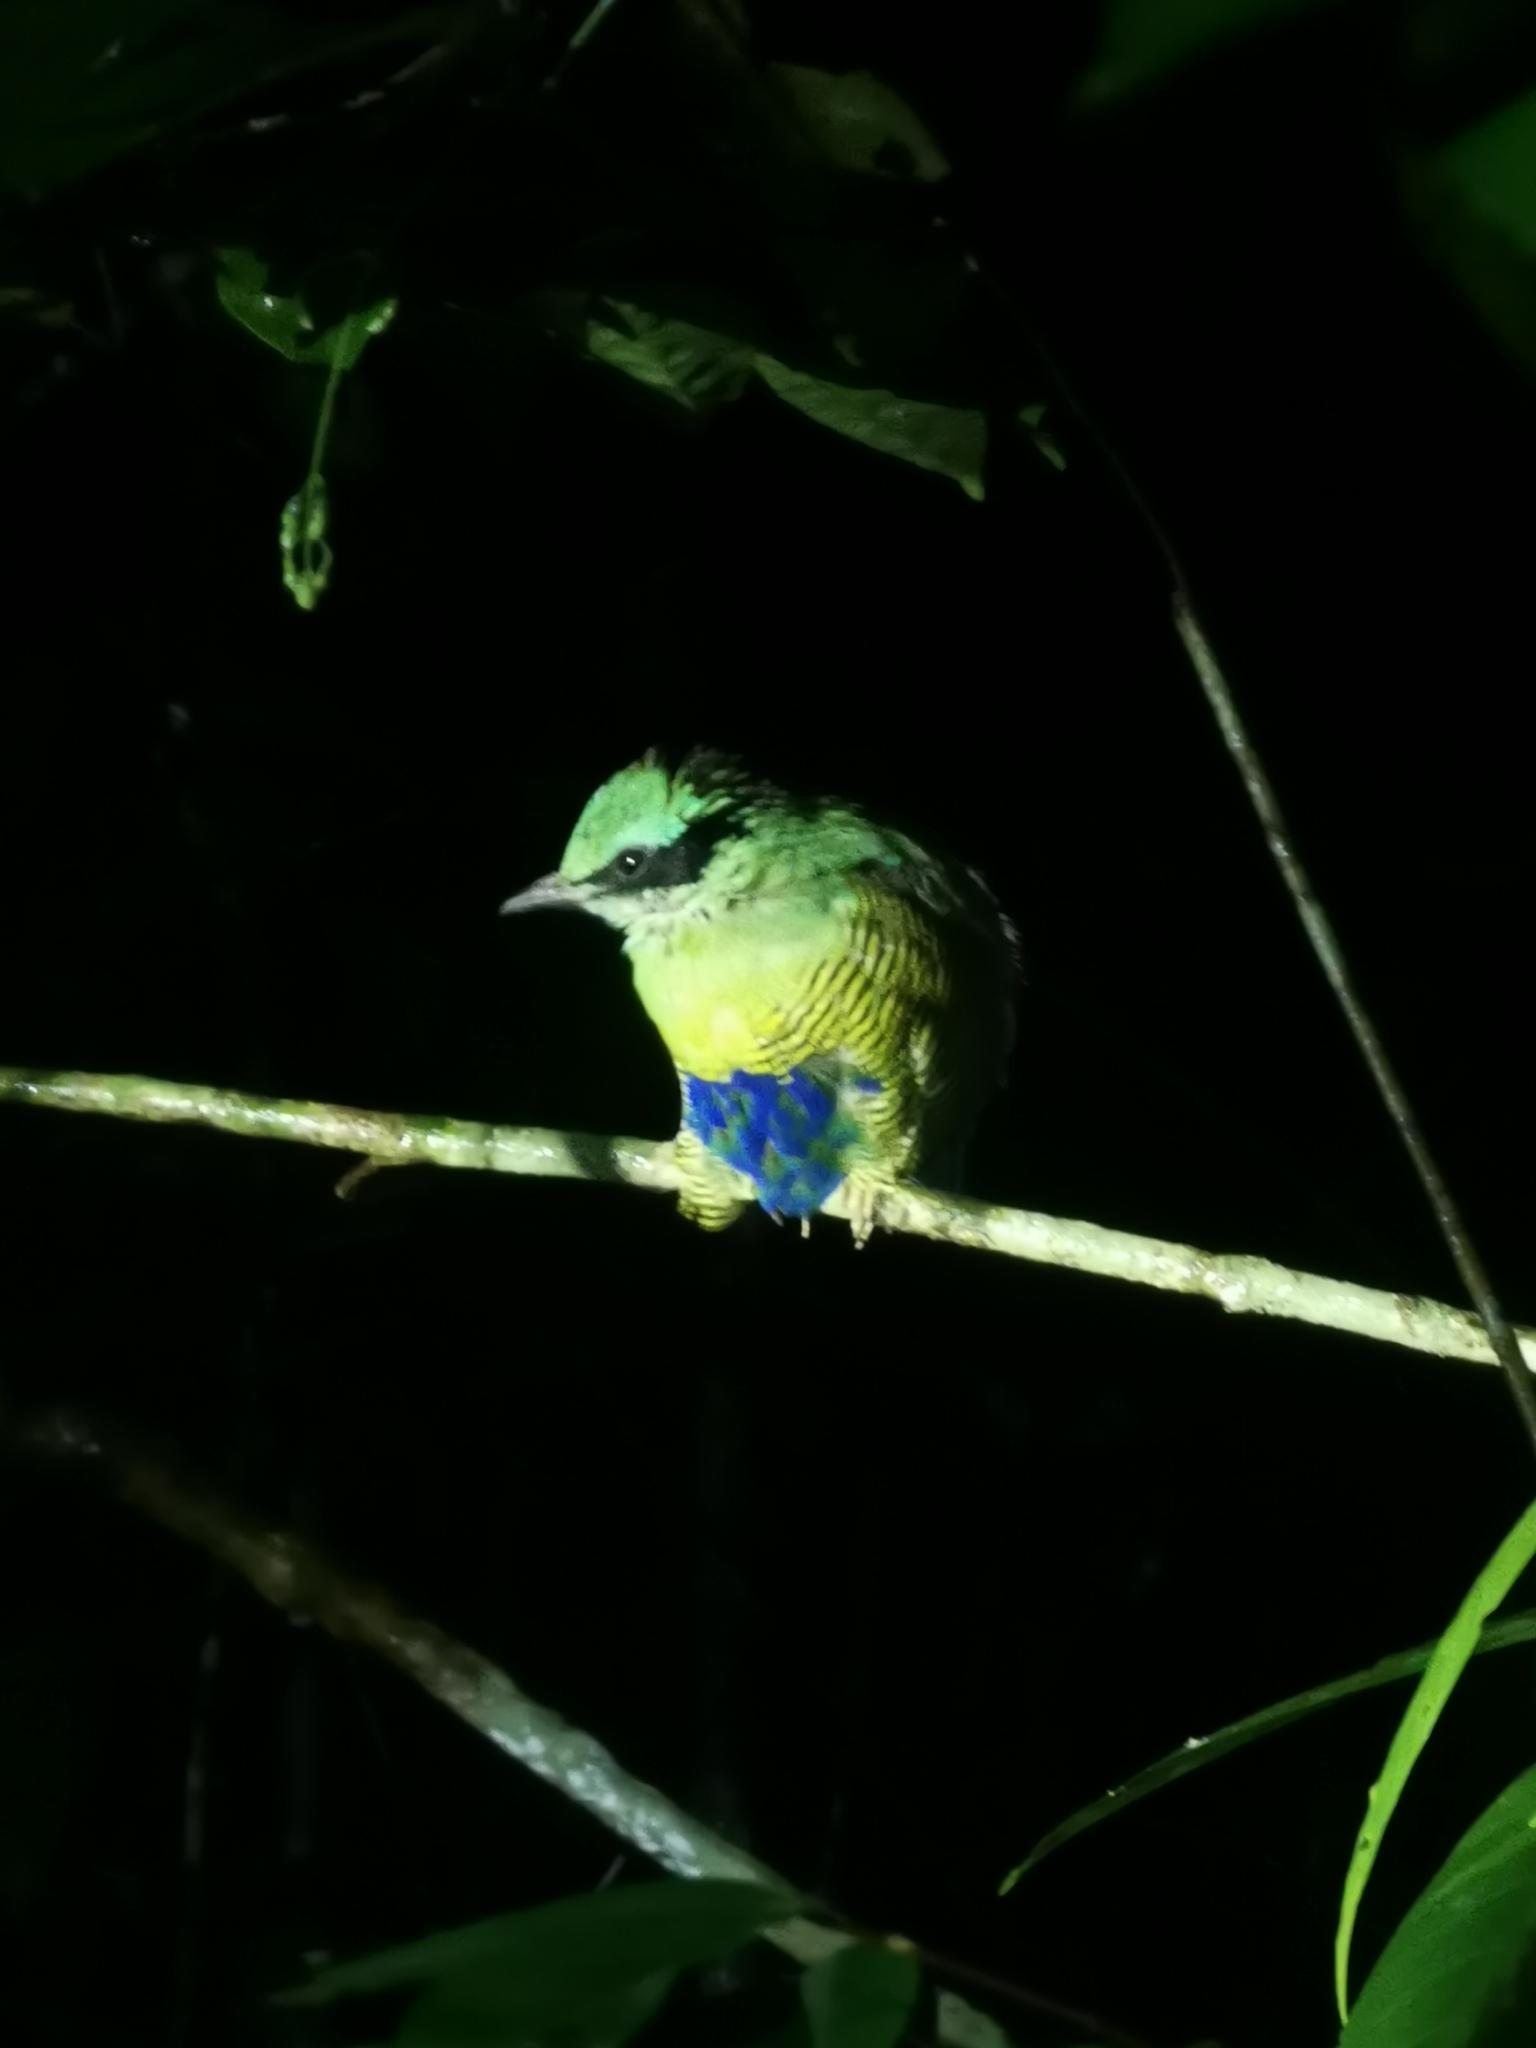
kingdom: Animalia
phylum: Chordata
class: Aves
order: Passeriformes
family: Pittidae
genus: Pitta
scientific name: Pitta elliotii
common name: Bar-bellied pitta
